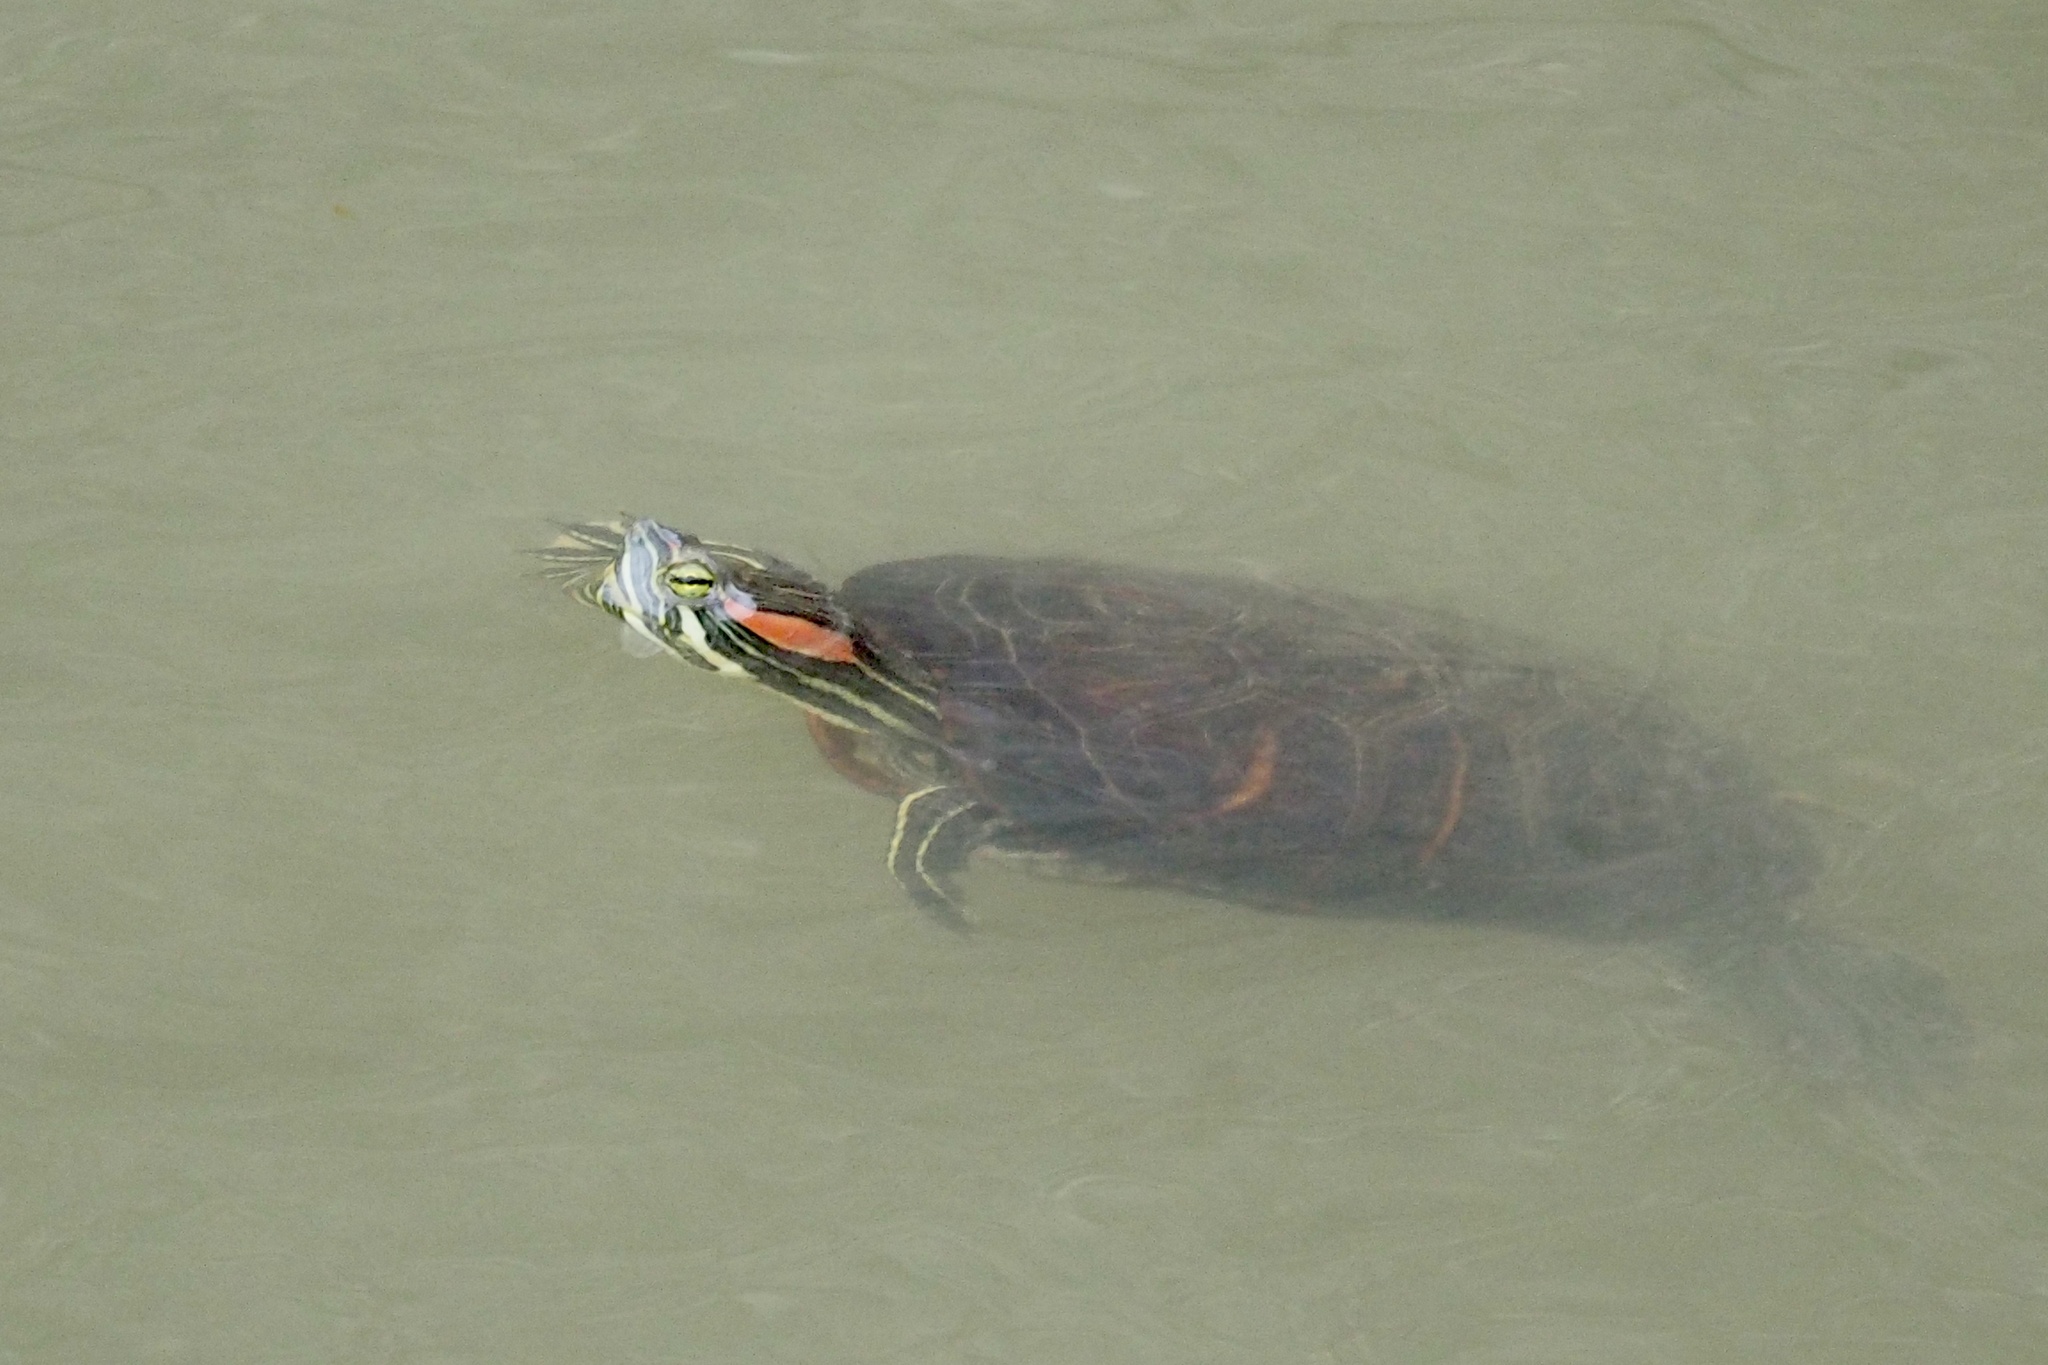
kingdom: Animalia
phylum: Chordata
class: Testudines
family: Emydidae
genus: Trachemys
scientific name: Trachemys scripta
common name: Slider
